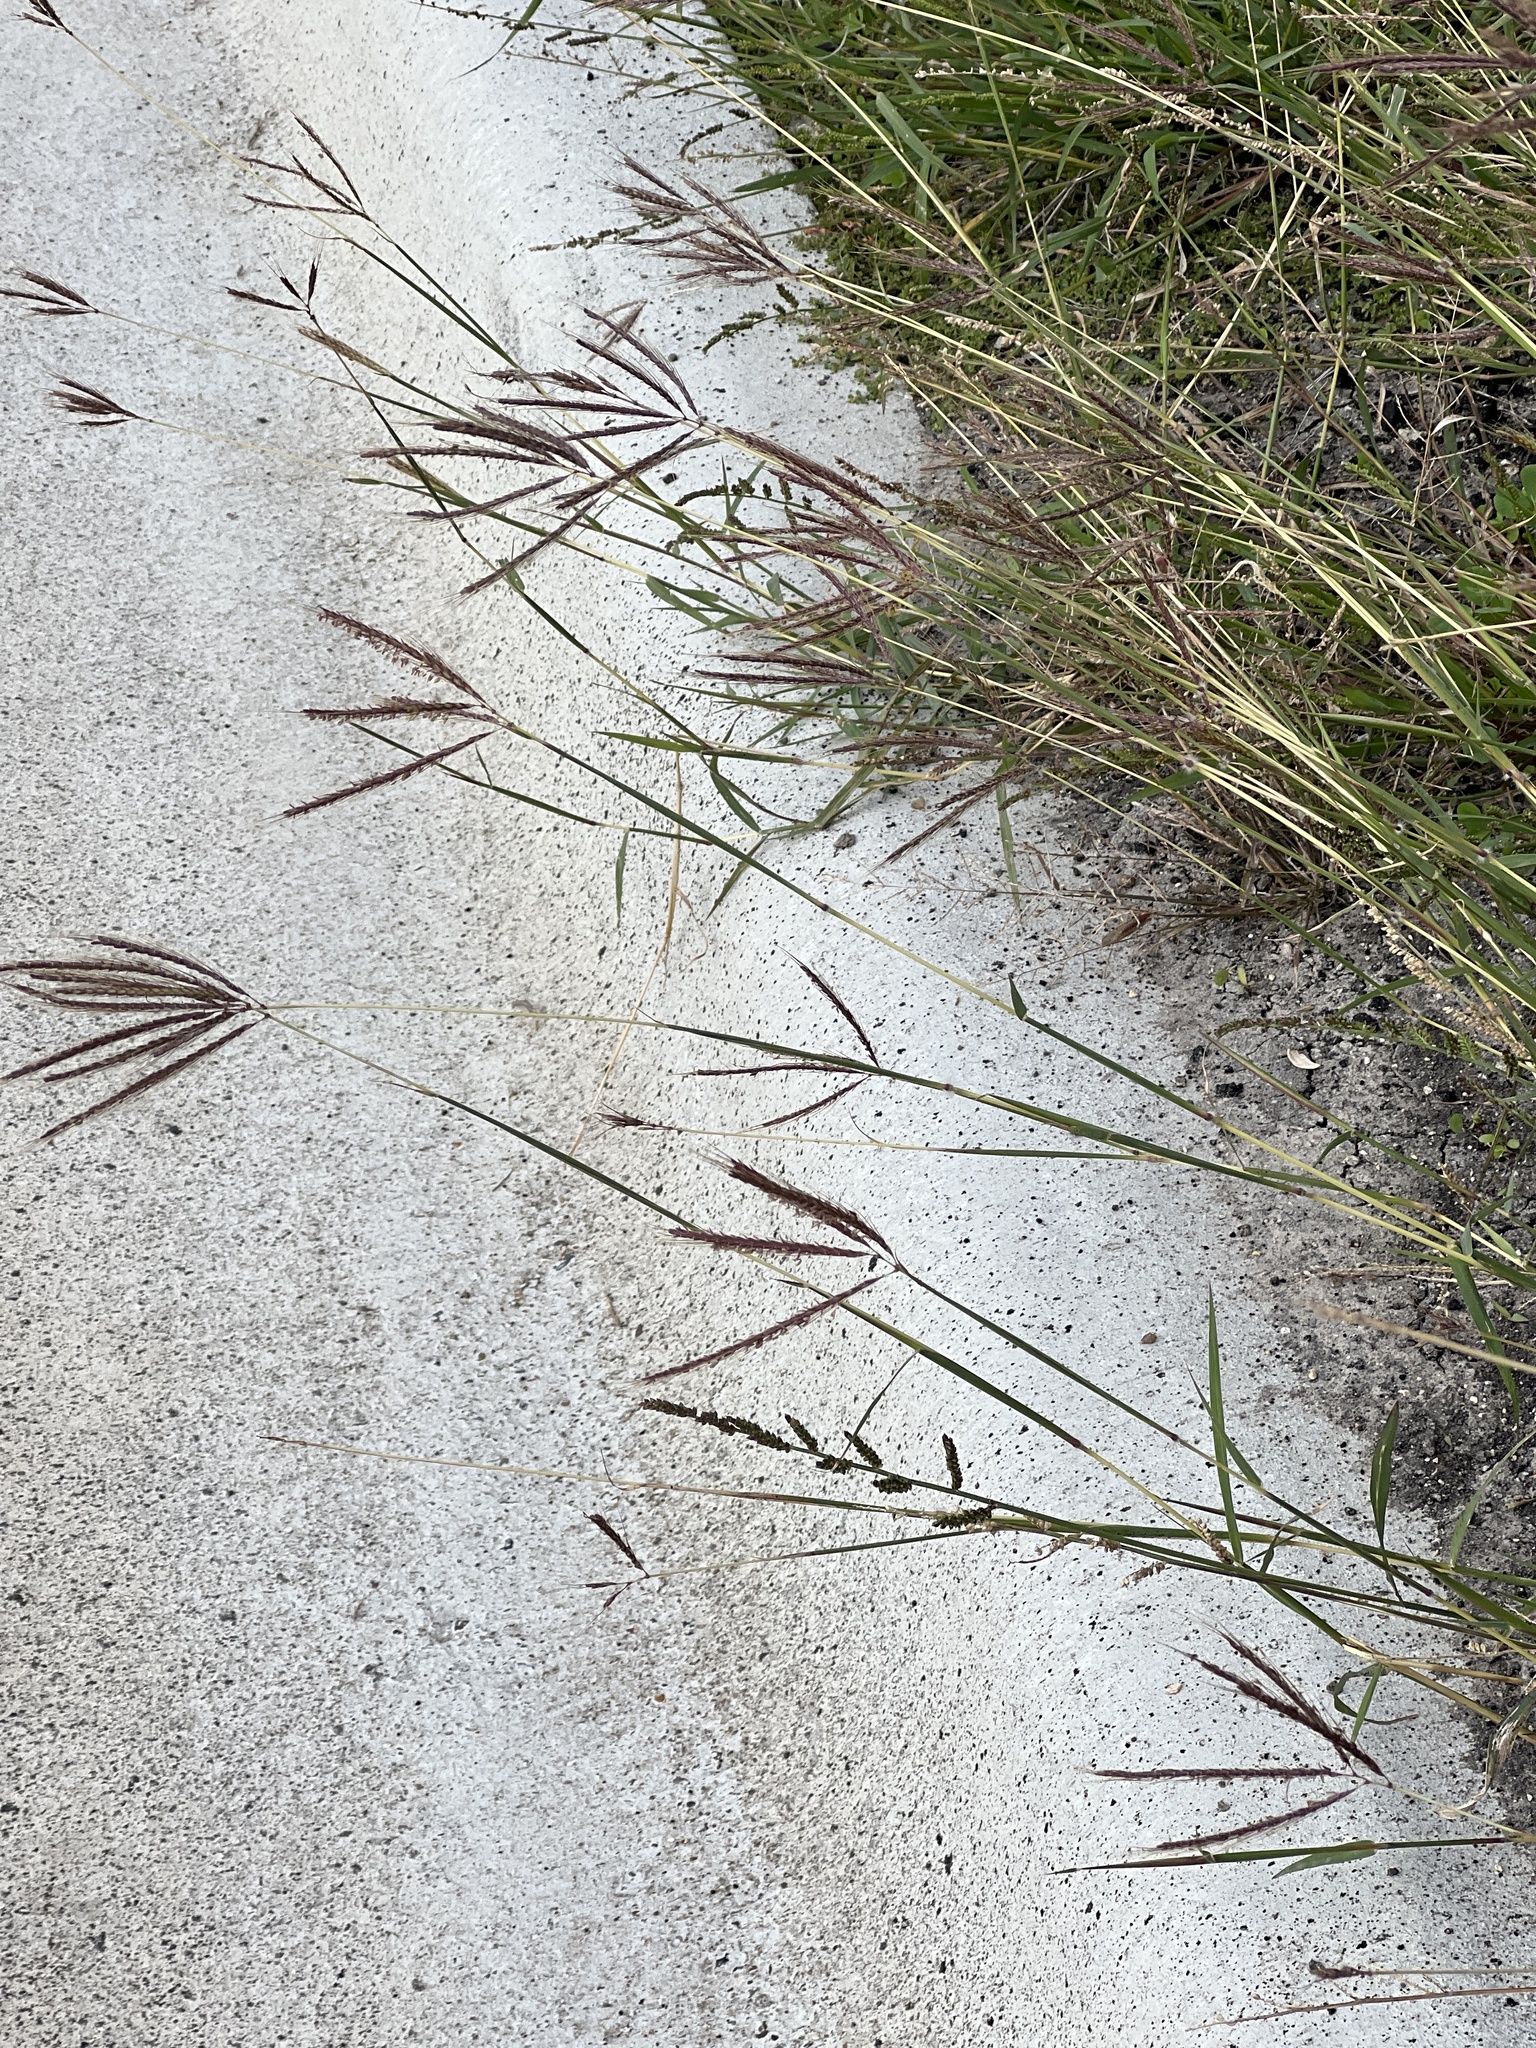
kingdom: Plantae
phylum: Tracheophyta
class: Liliopsida
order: Poales
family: Poaceae
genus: Dichanthium
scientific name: Dichanthium annulatum
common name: Kleberg's bluestem
